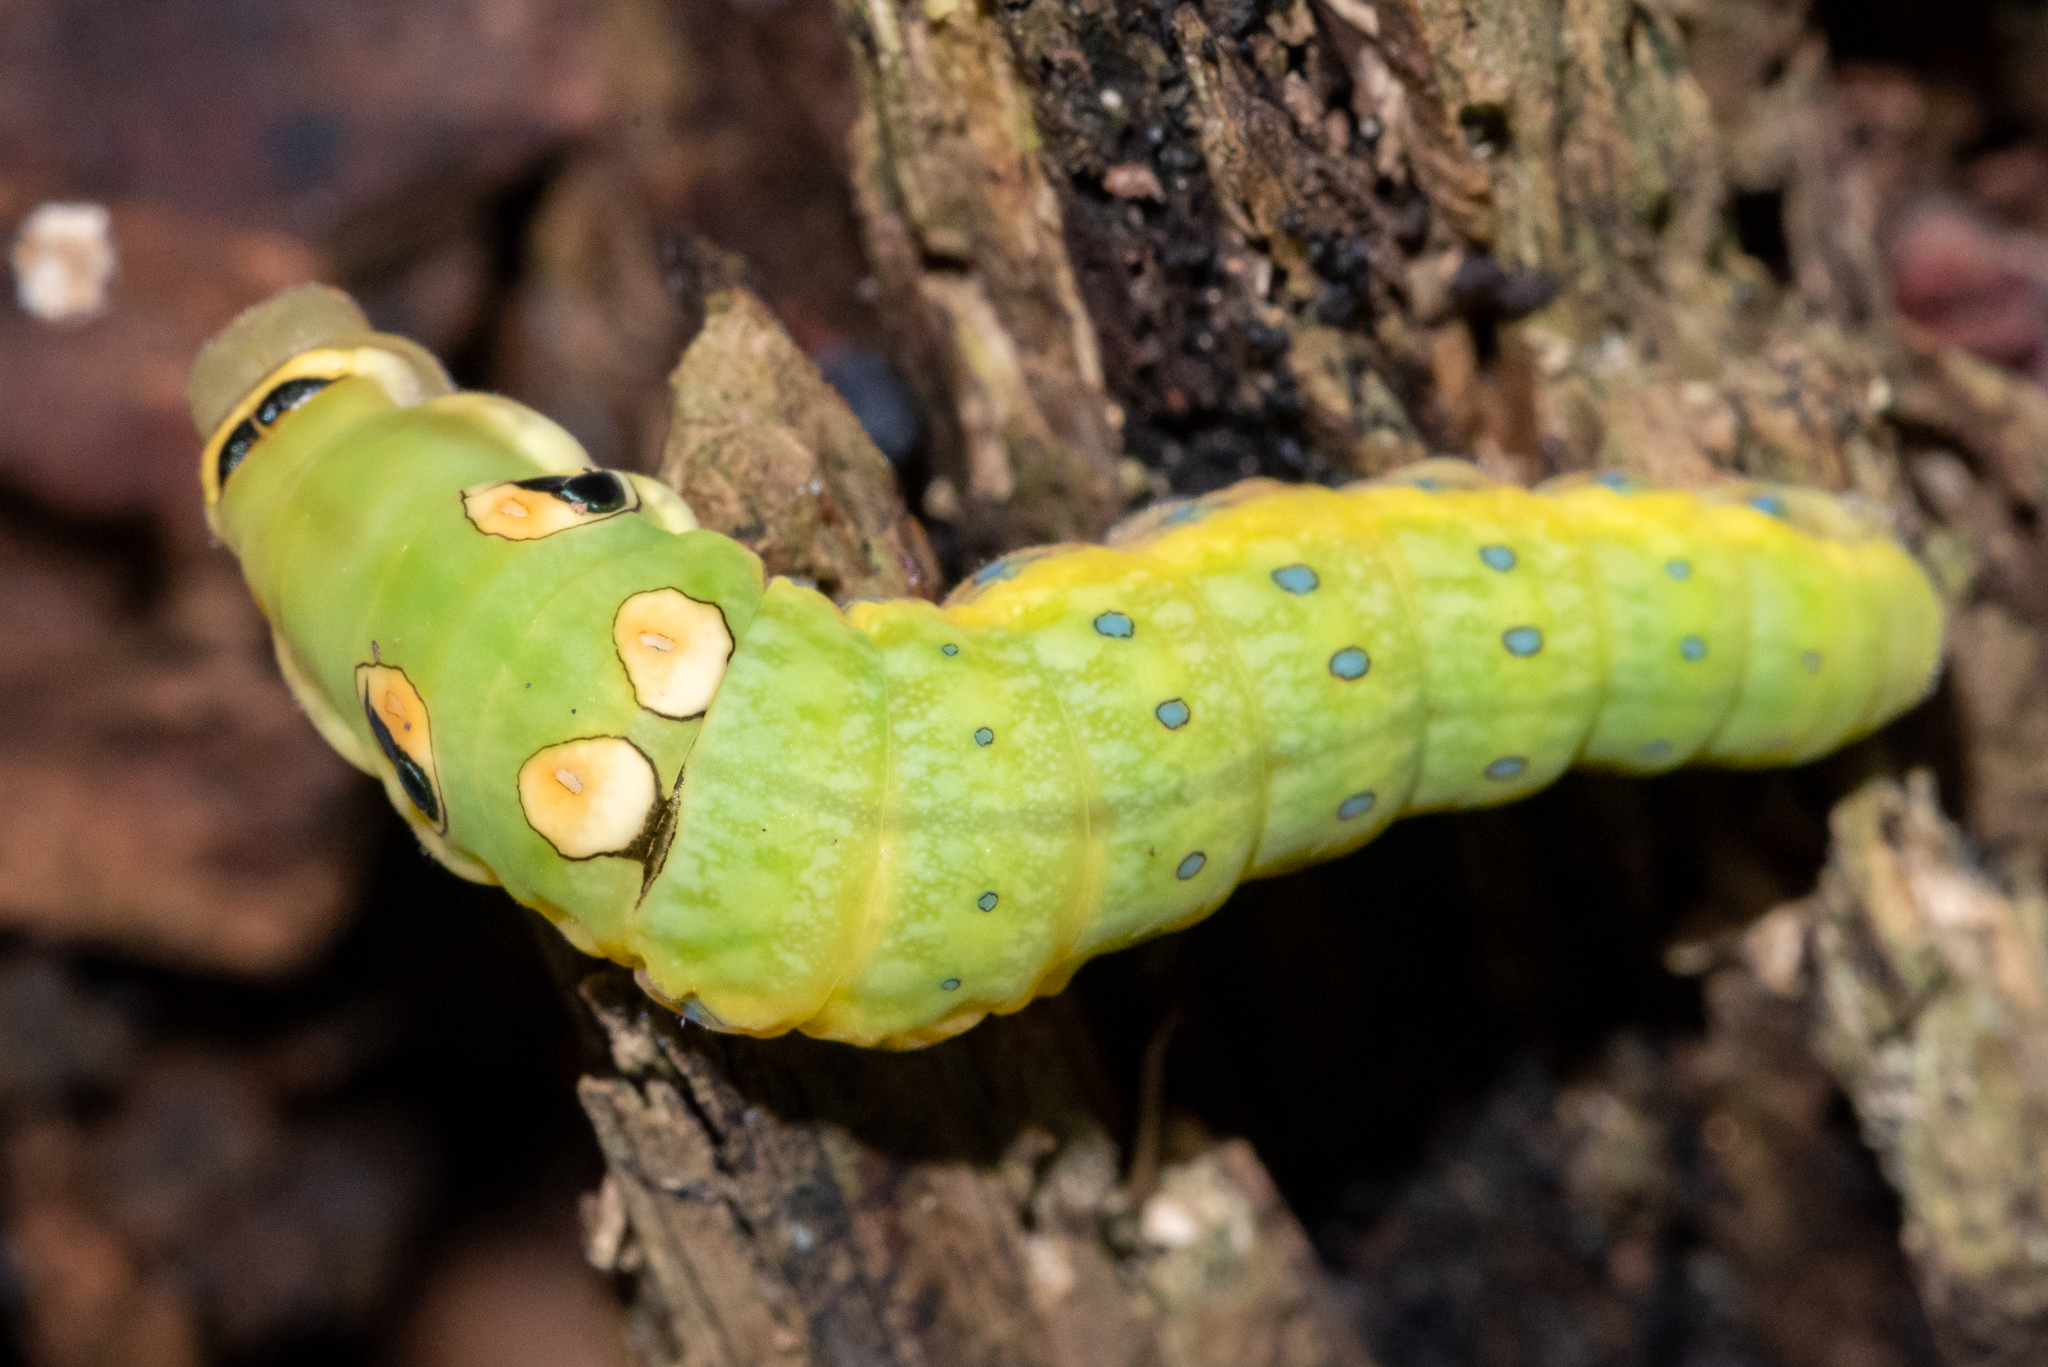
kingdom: Animalia
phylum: Arthropoda
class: Insecta
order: Lepidoptera
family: Papilionidae
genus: Papilio
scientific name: Papilio troilus
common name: Spicebush swallowtail
